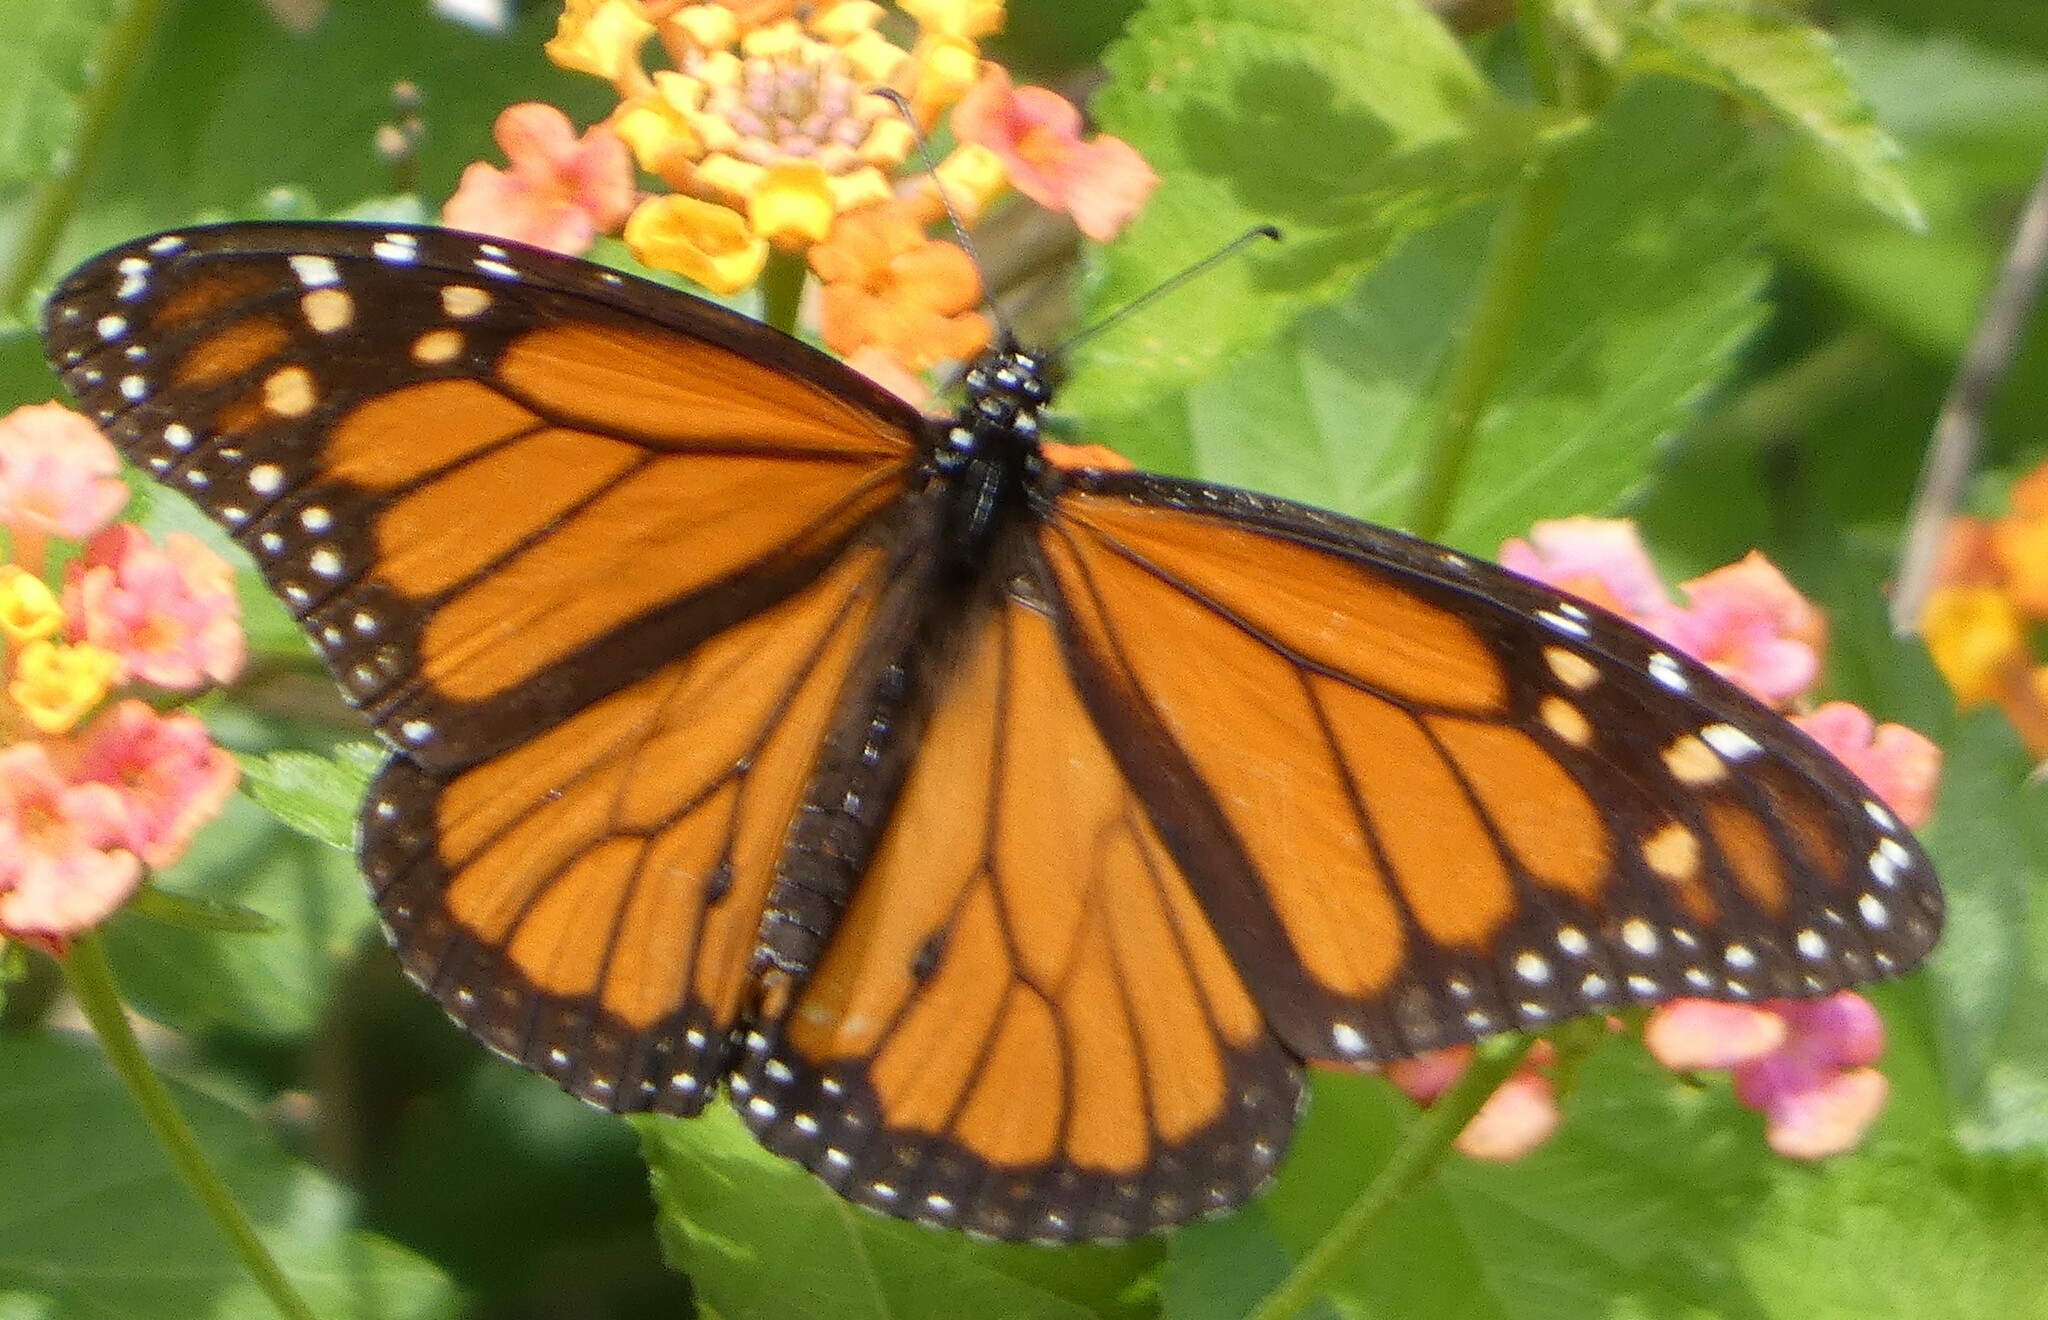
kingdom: Animalia
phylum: Arthropoda
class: Insecta
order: Lepidoptera
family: Nymphalidae
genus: Danaus
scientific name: Danaus plexippus
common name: Monarch
